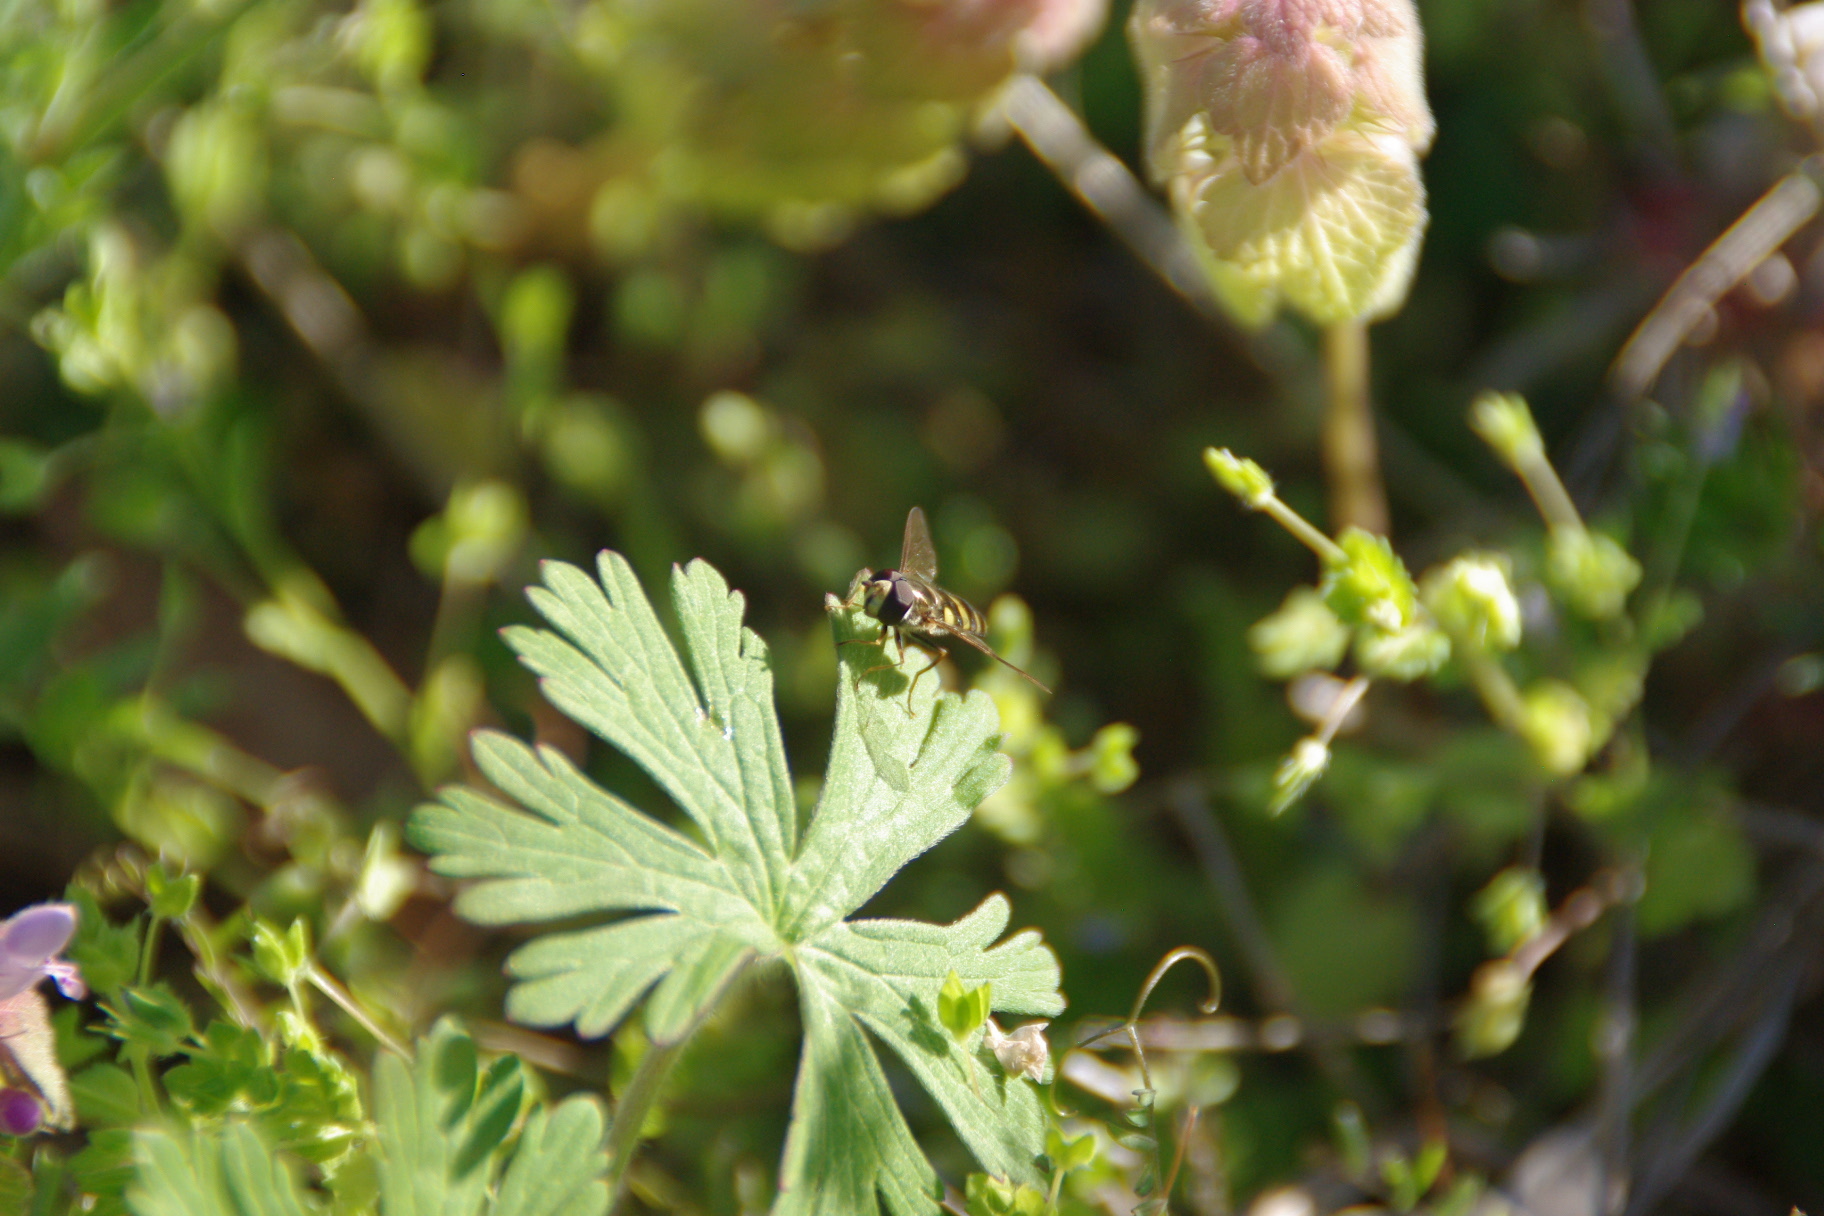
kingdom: Animalia
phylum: Arthropoda
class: Insecta
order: Diptera
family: Syrphidae
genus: Eupeodes
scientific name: Eupeodes
